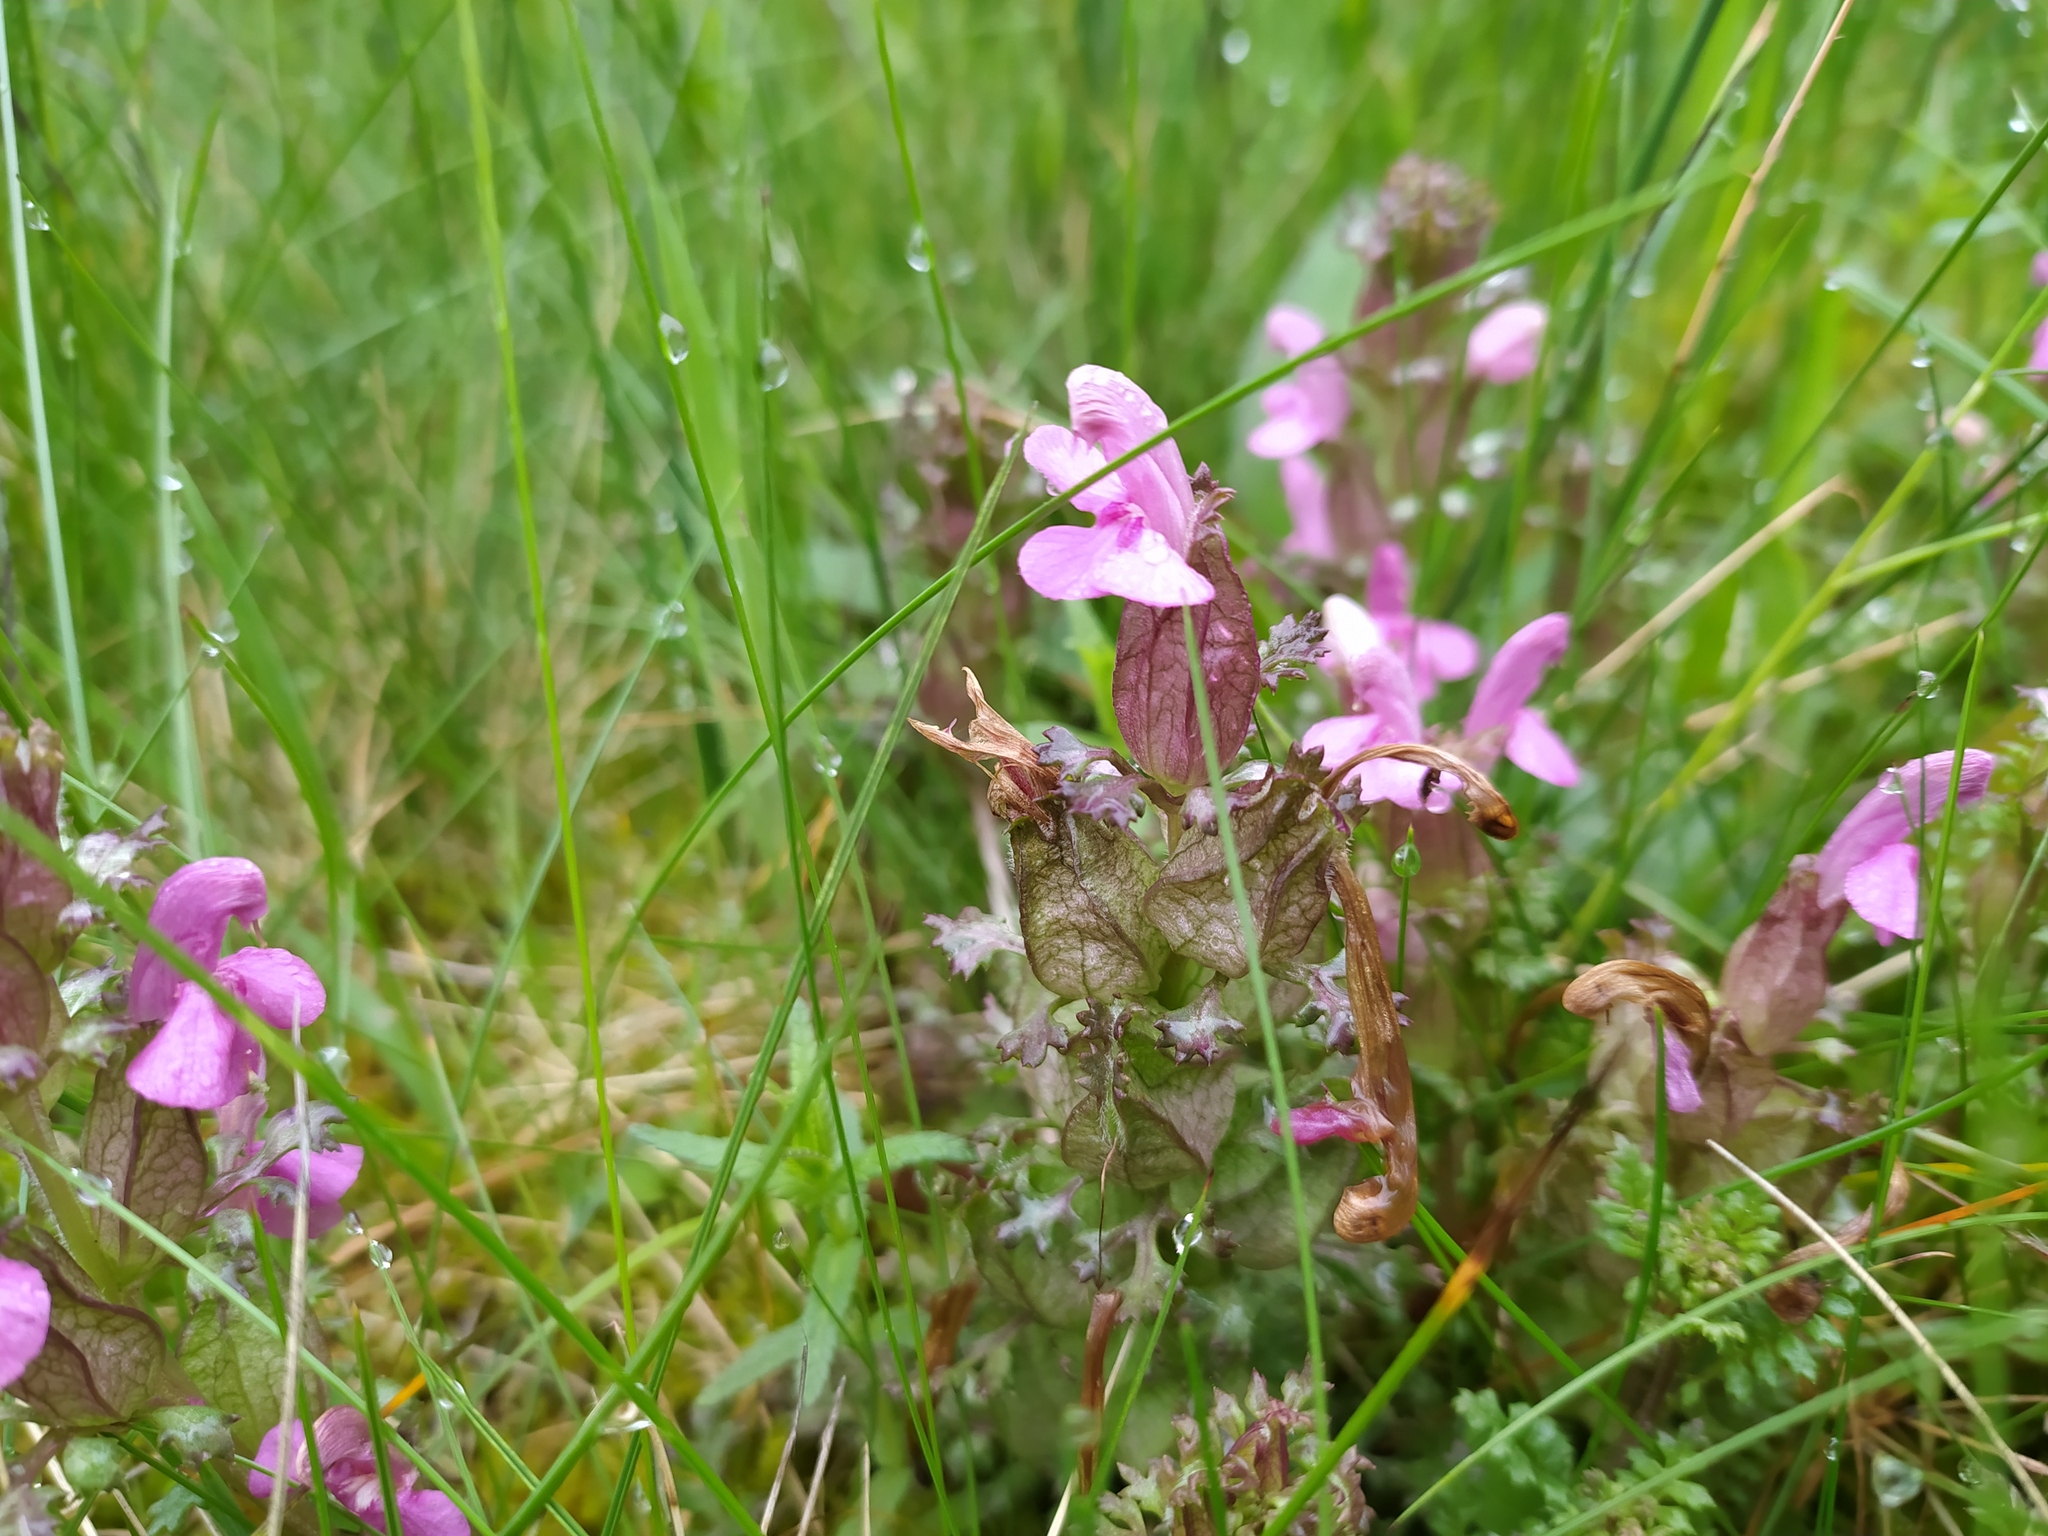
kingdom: Plantae
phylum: Tracheophyta
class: Magnoliopsida
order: Lamiales
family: Orobanchaceae
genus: Pedicularis
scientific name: Pedicularis sylvatica
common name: Lousewort
